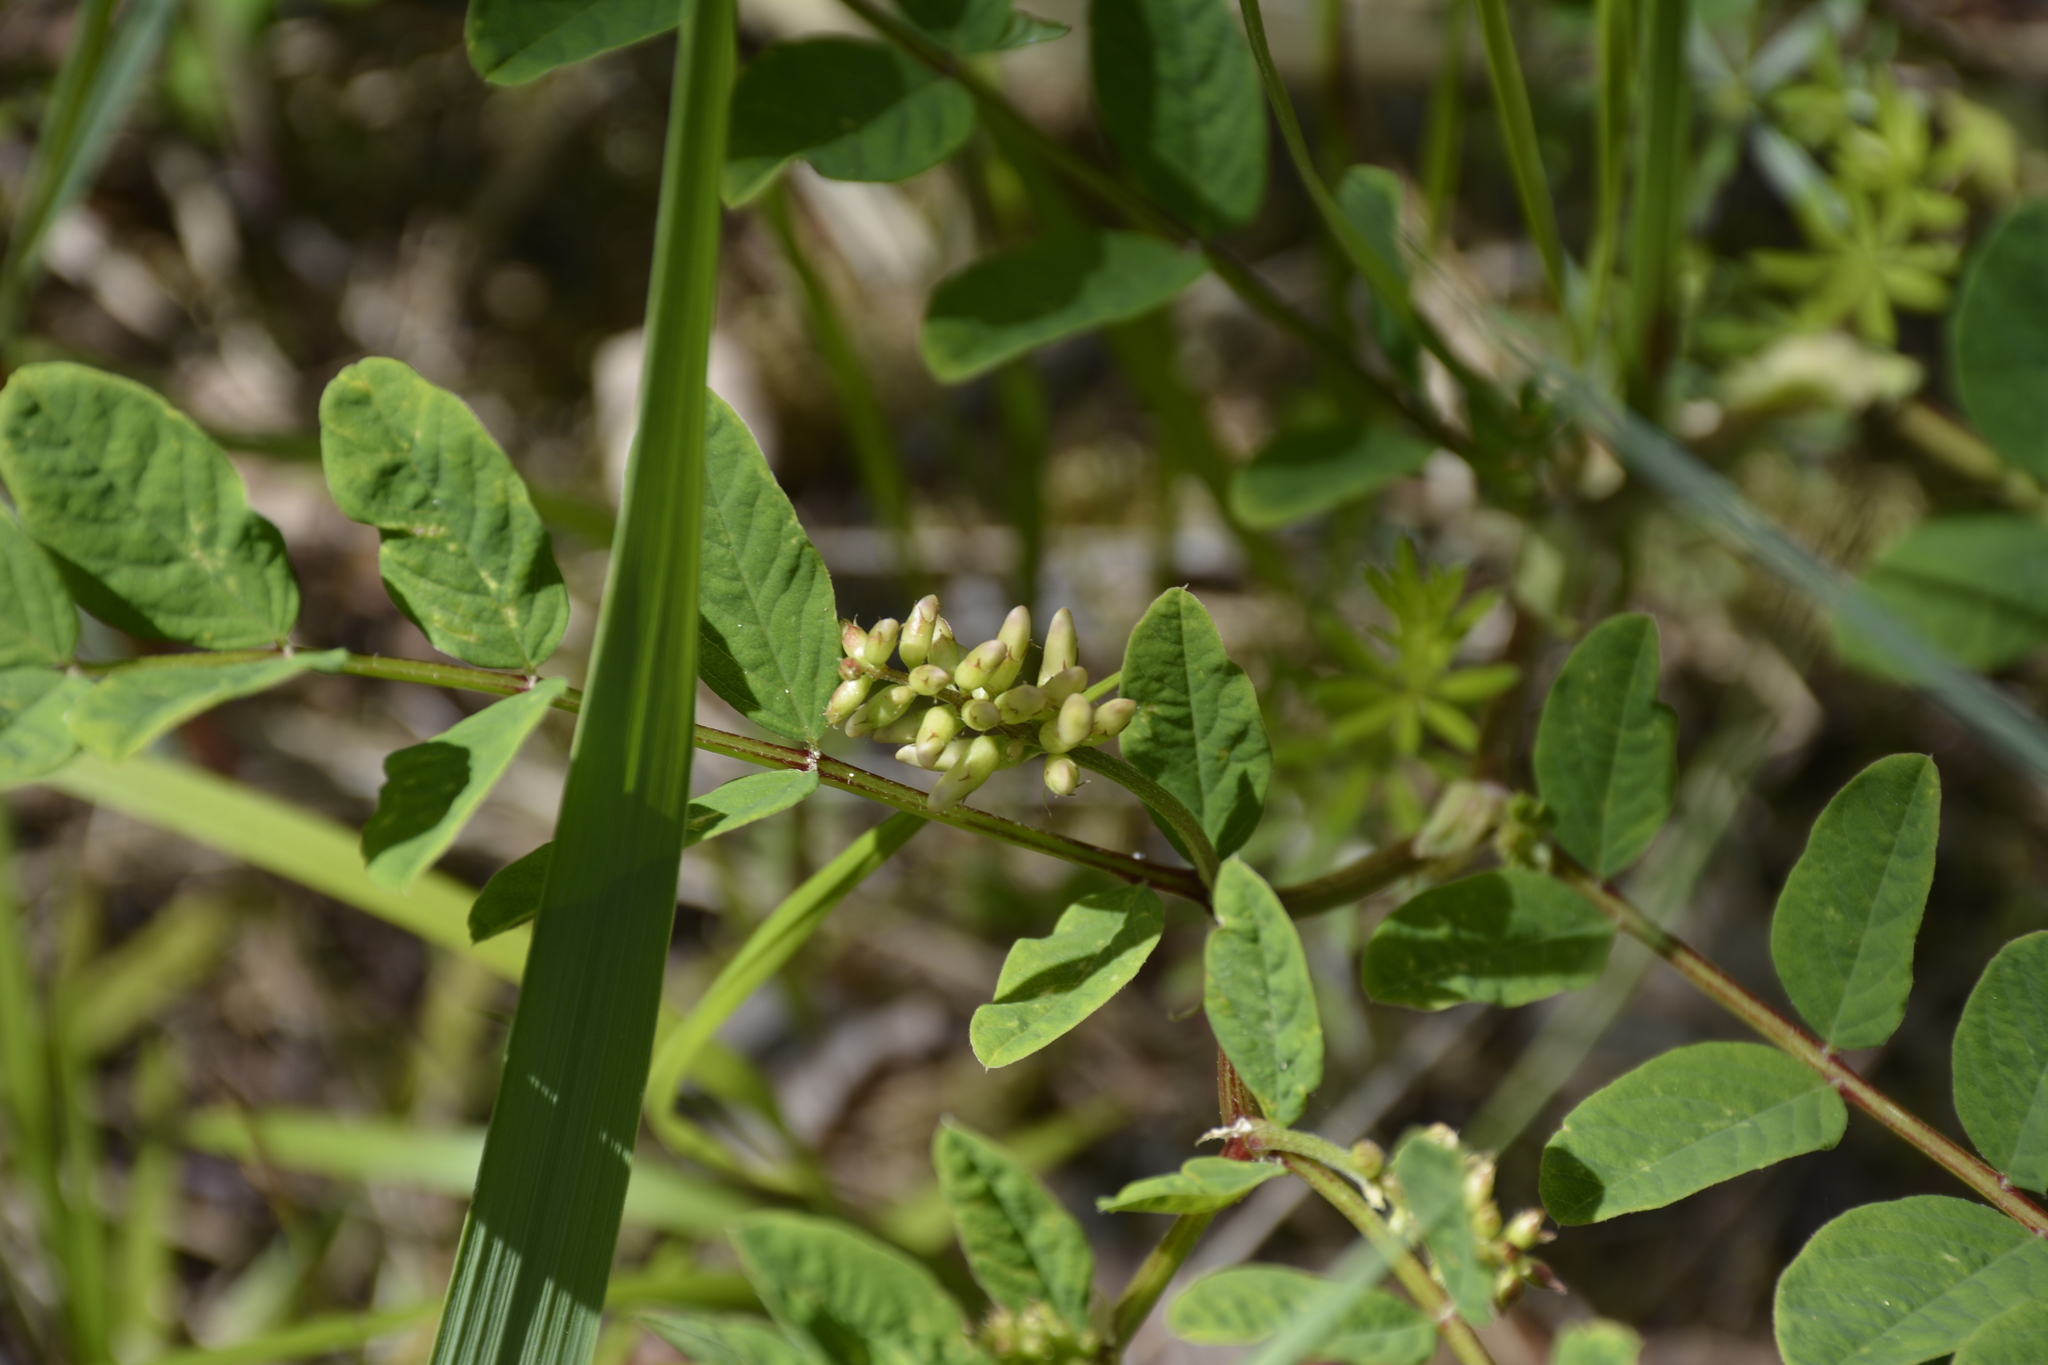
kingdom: Plantae
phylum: Tracheophyta
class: Magnoliopsida
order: Fabales
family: Fabaceae
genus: Astragalus
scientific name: Astragalus glycyphyllos
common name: Wild liquorice
